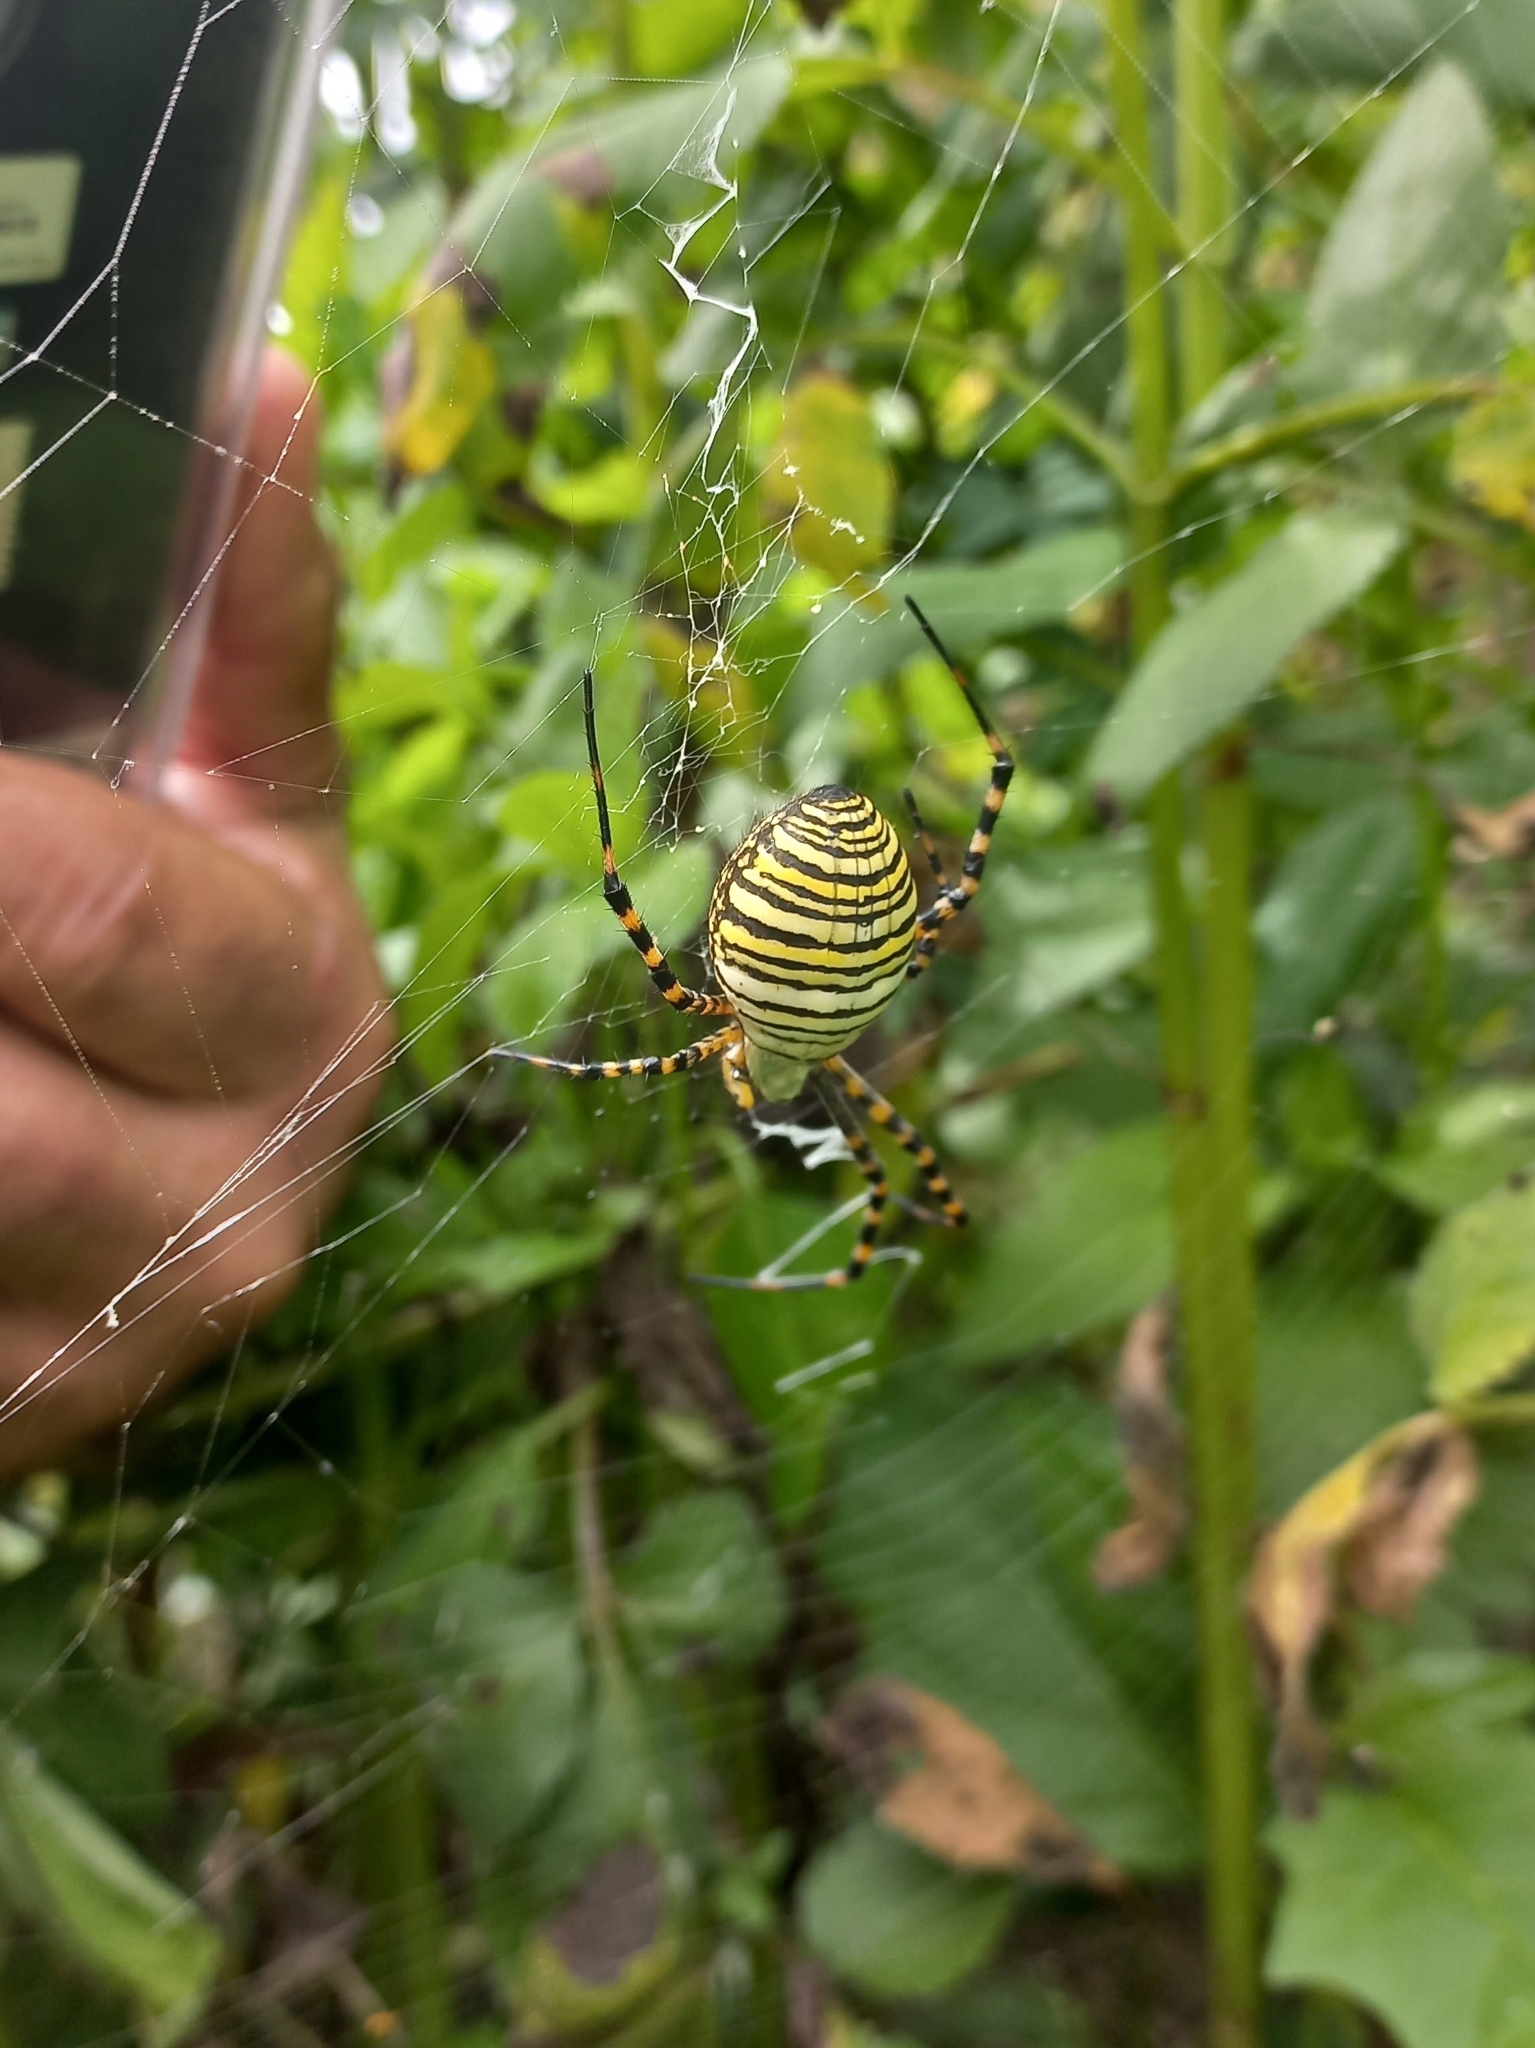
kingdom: Animalia
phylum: Arthropoda
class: Arachnida
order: Araneae
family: Araneidae
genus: Argiope
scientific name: Argiope trifasciata
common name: Banded garden spider
